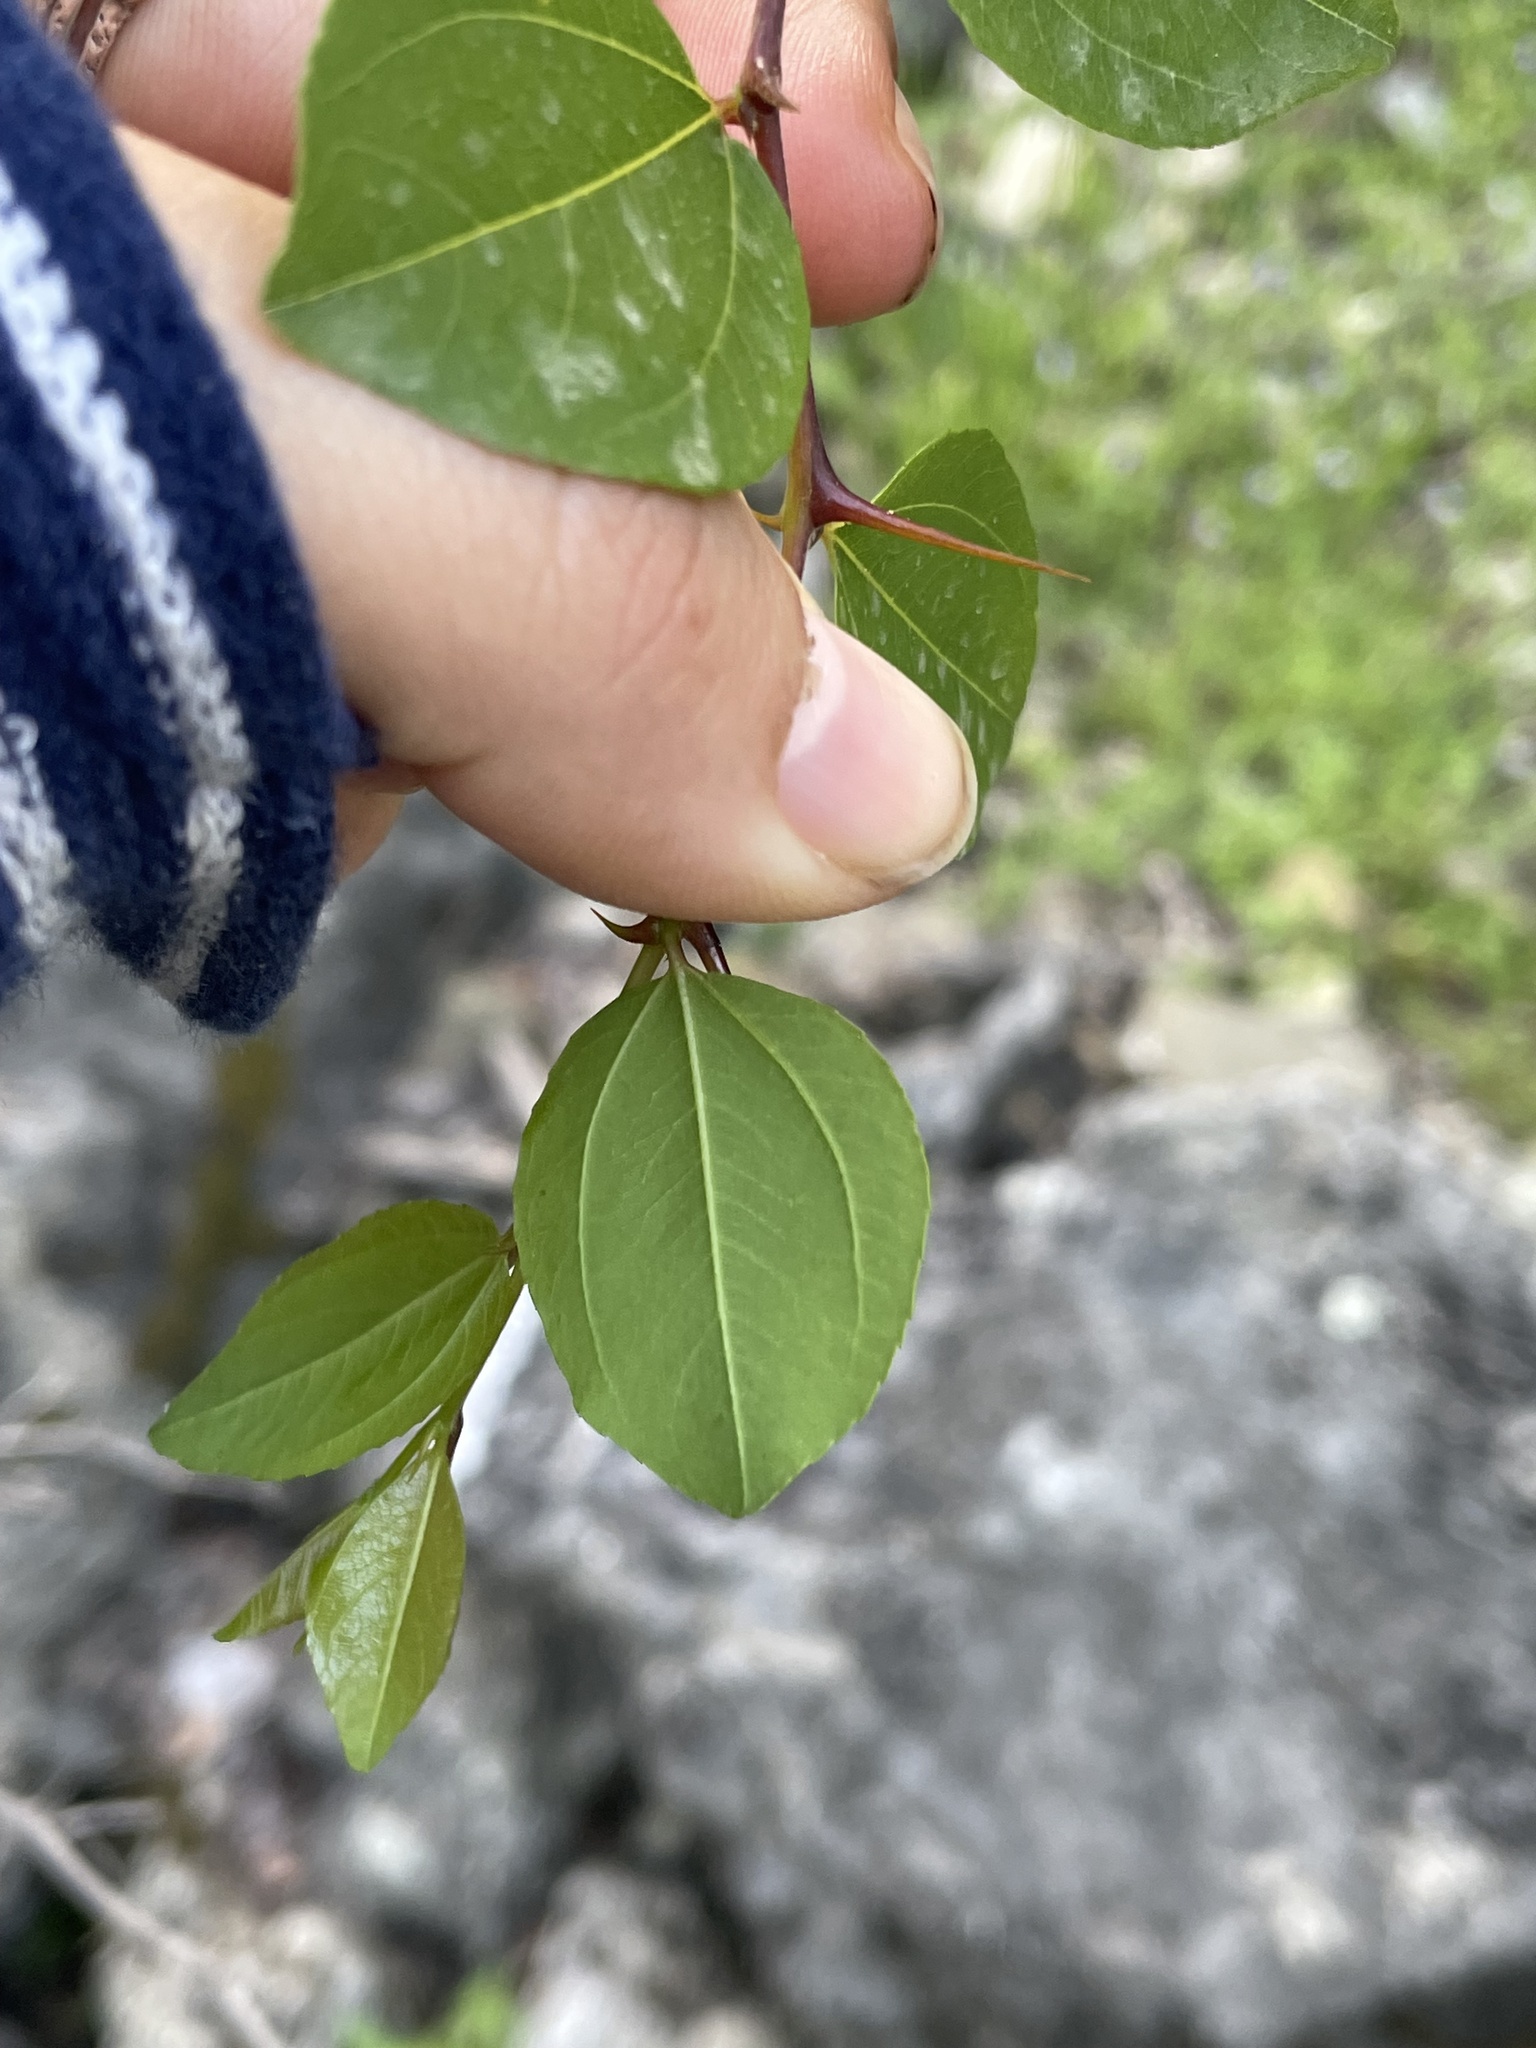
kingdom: Plantae
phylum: Tracheophyta
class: Magnoliopsida
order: Rosales
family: Rhamnaceae
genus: Paliurus
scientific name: Paliurus spina-christi
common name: Jeruselem thorn
